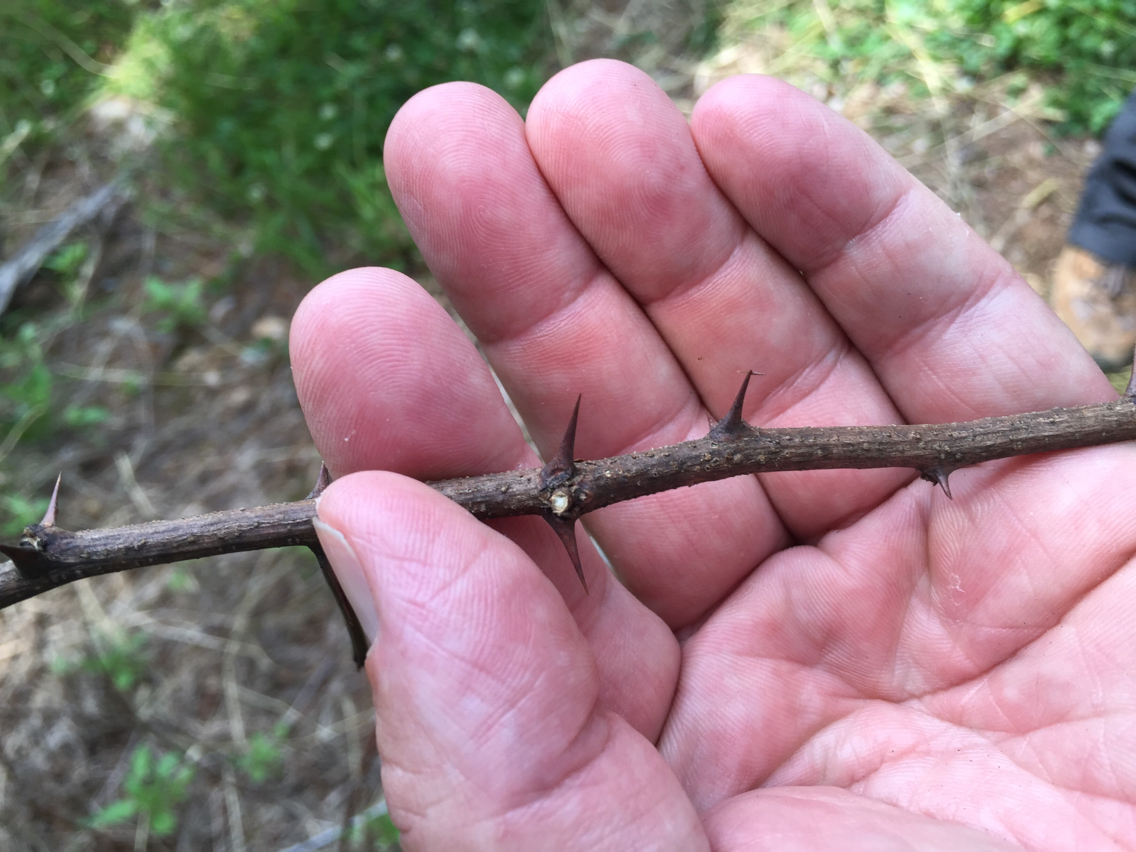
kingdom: Plantae
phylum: Tracheophyta
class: Magnoliopsida
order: Fabales
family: Fabaceae
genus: Robinia
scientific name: Robinia pseudoacacia
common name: Black locust
